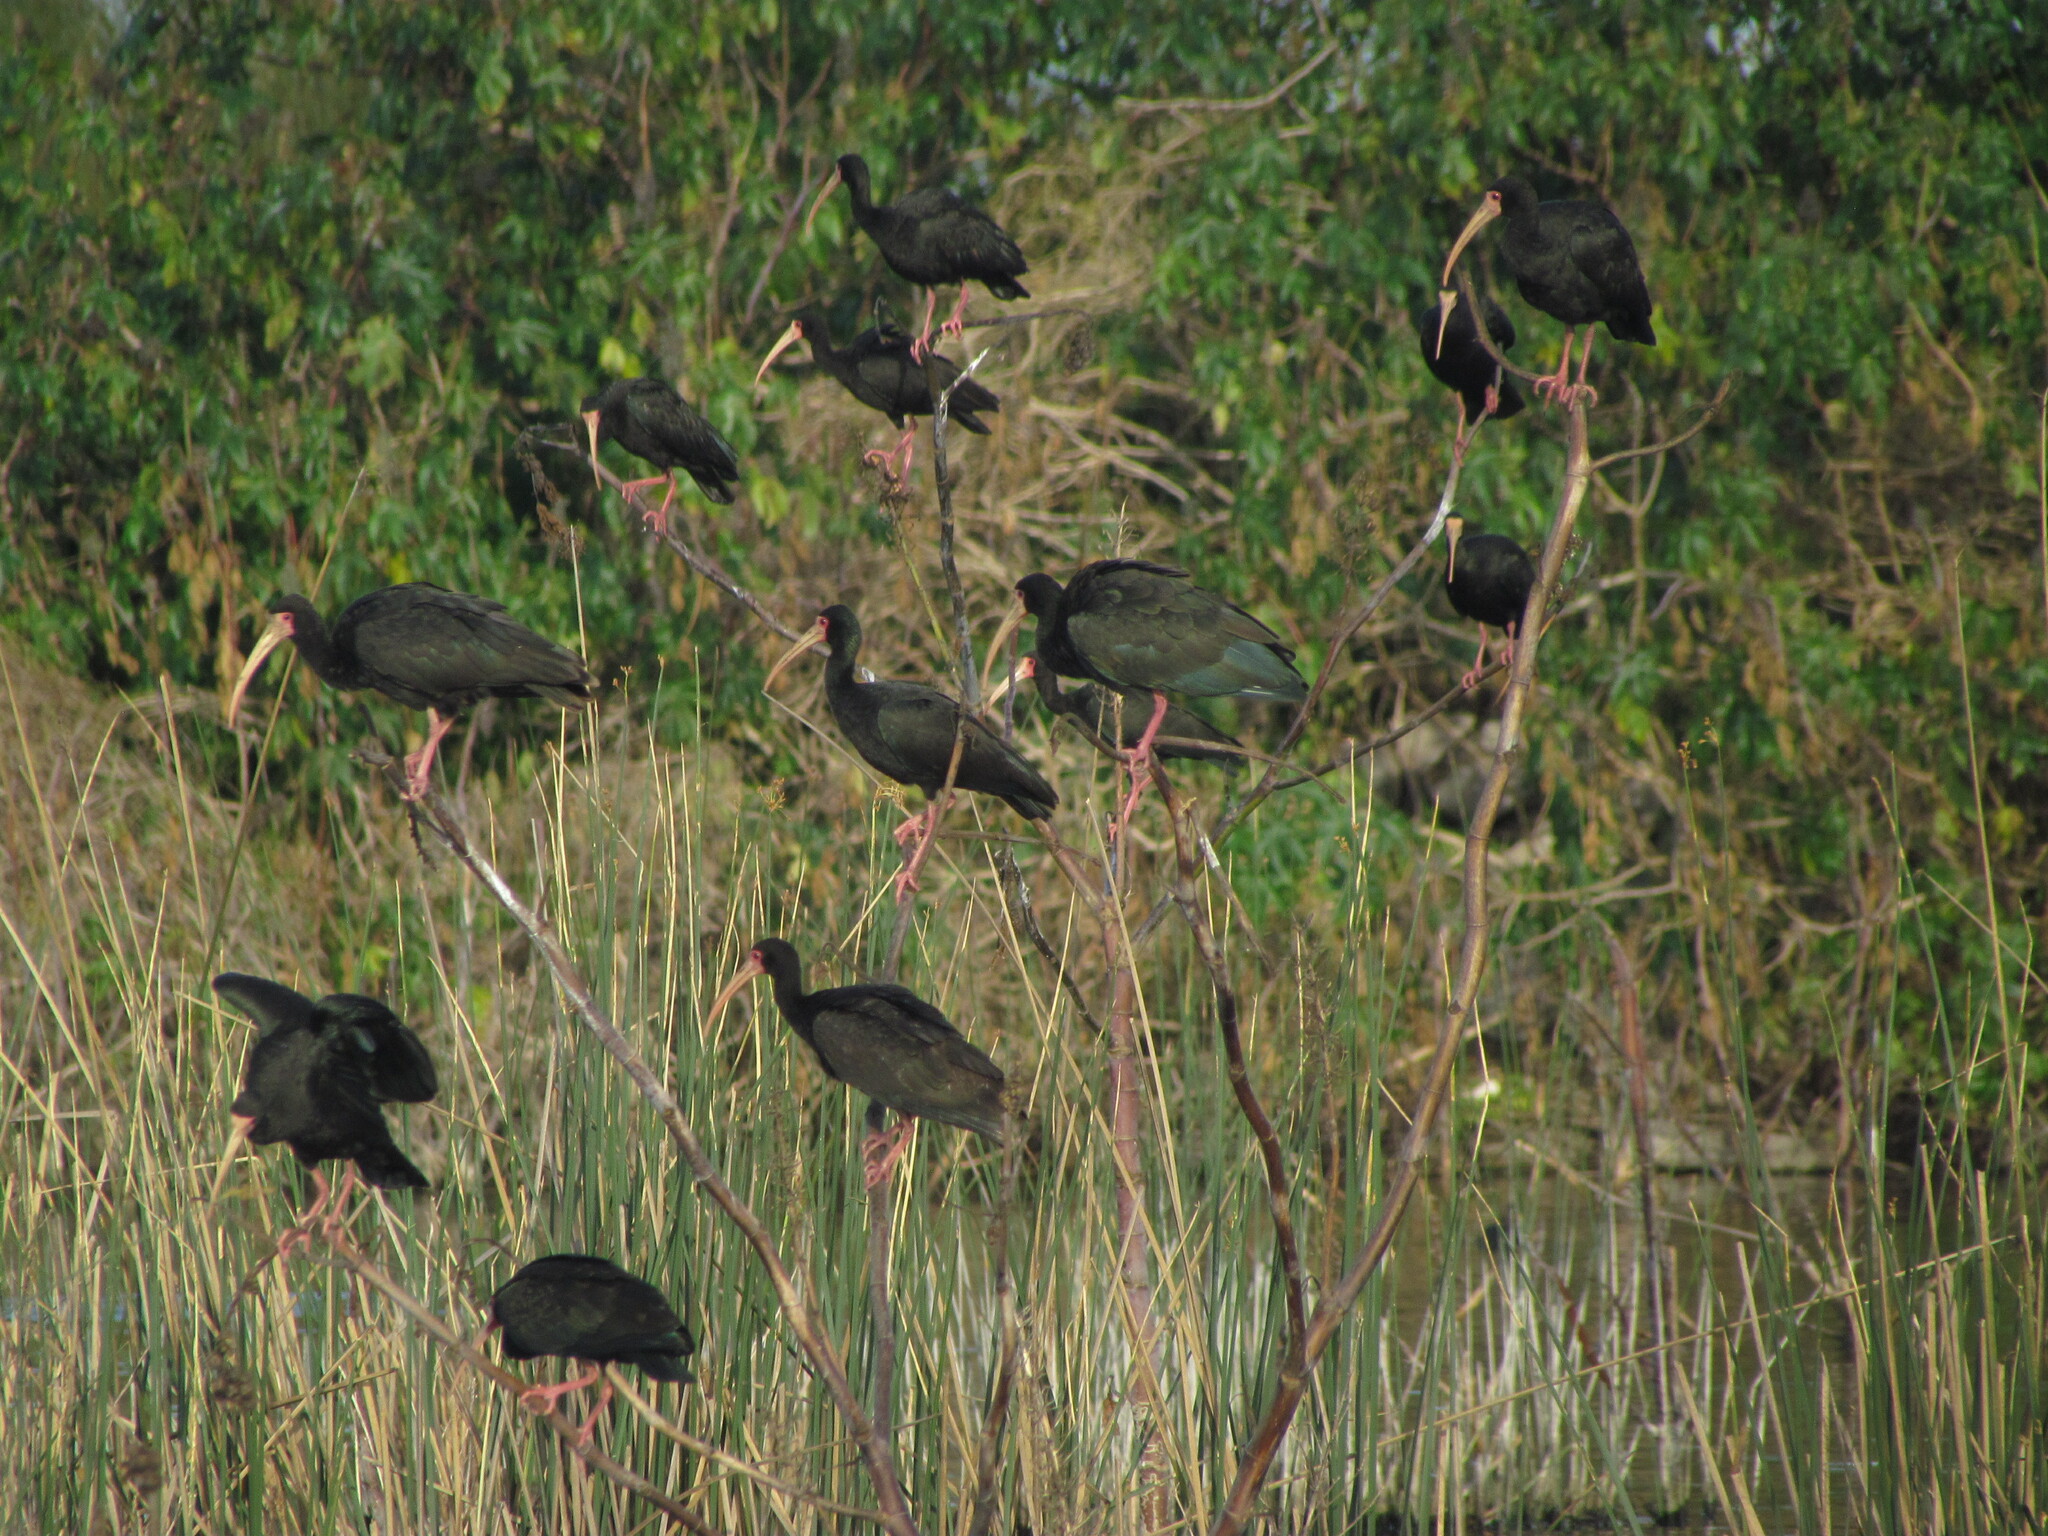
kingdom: Animalia
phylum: Chordata
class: Aves
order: Pelecaniformes
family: Threskiornithidae
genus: Phimosus
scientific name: Phimosus infuscatus
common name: Bare-faced ibis
